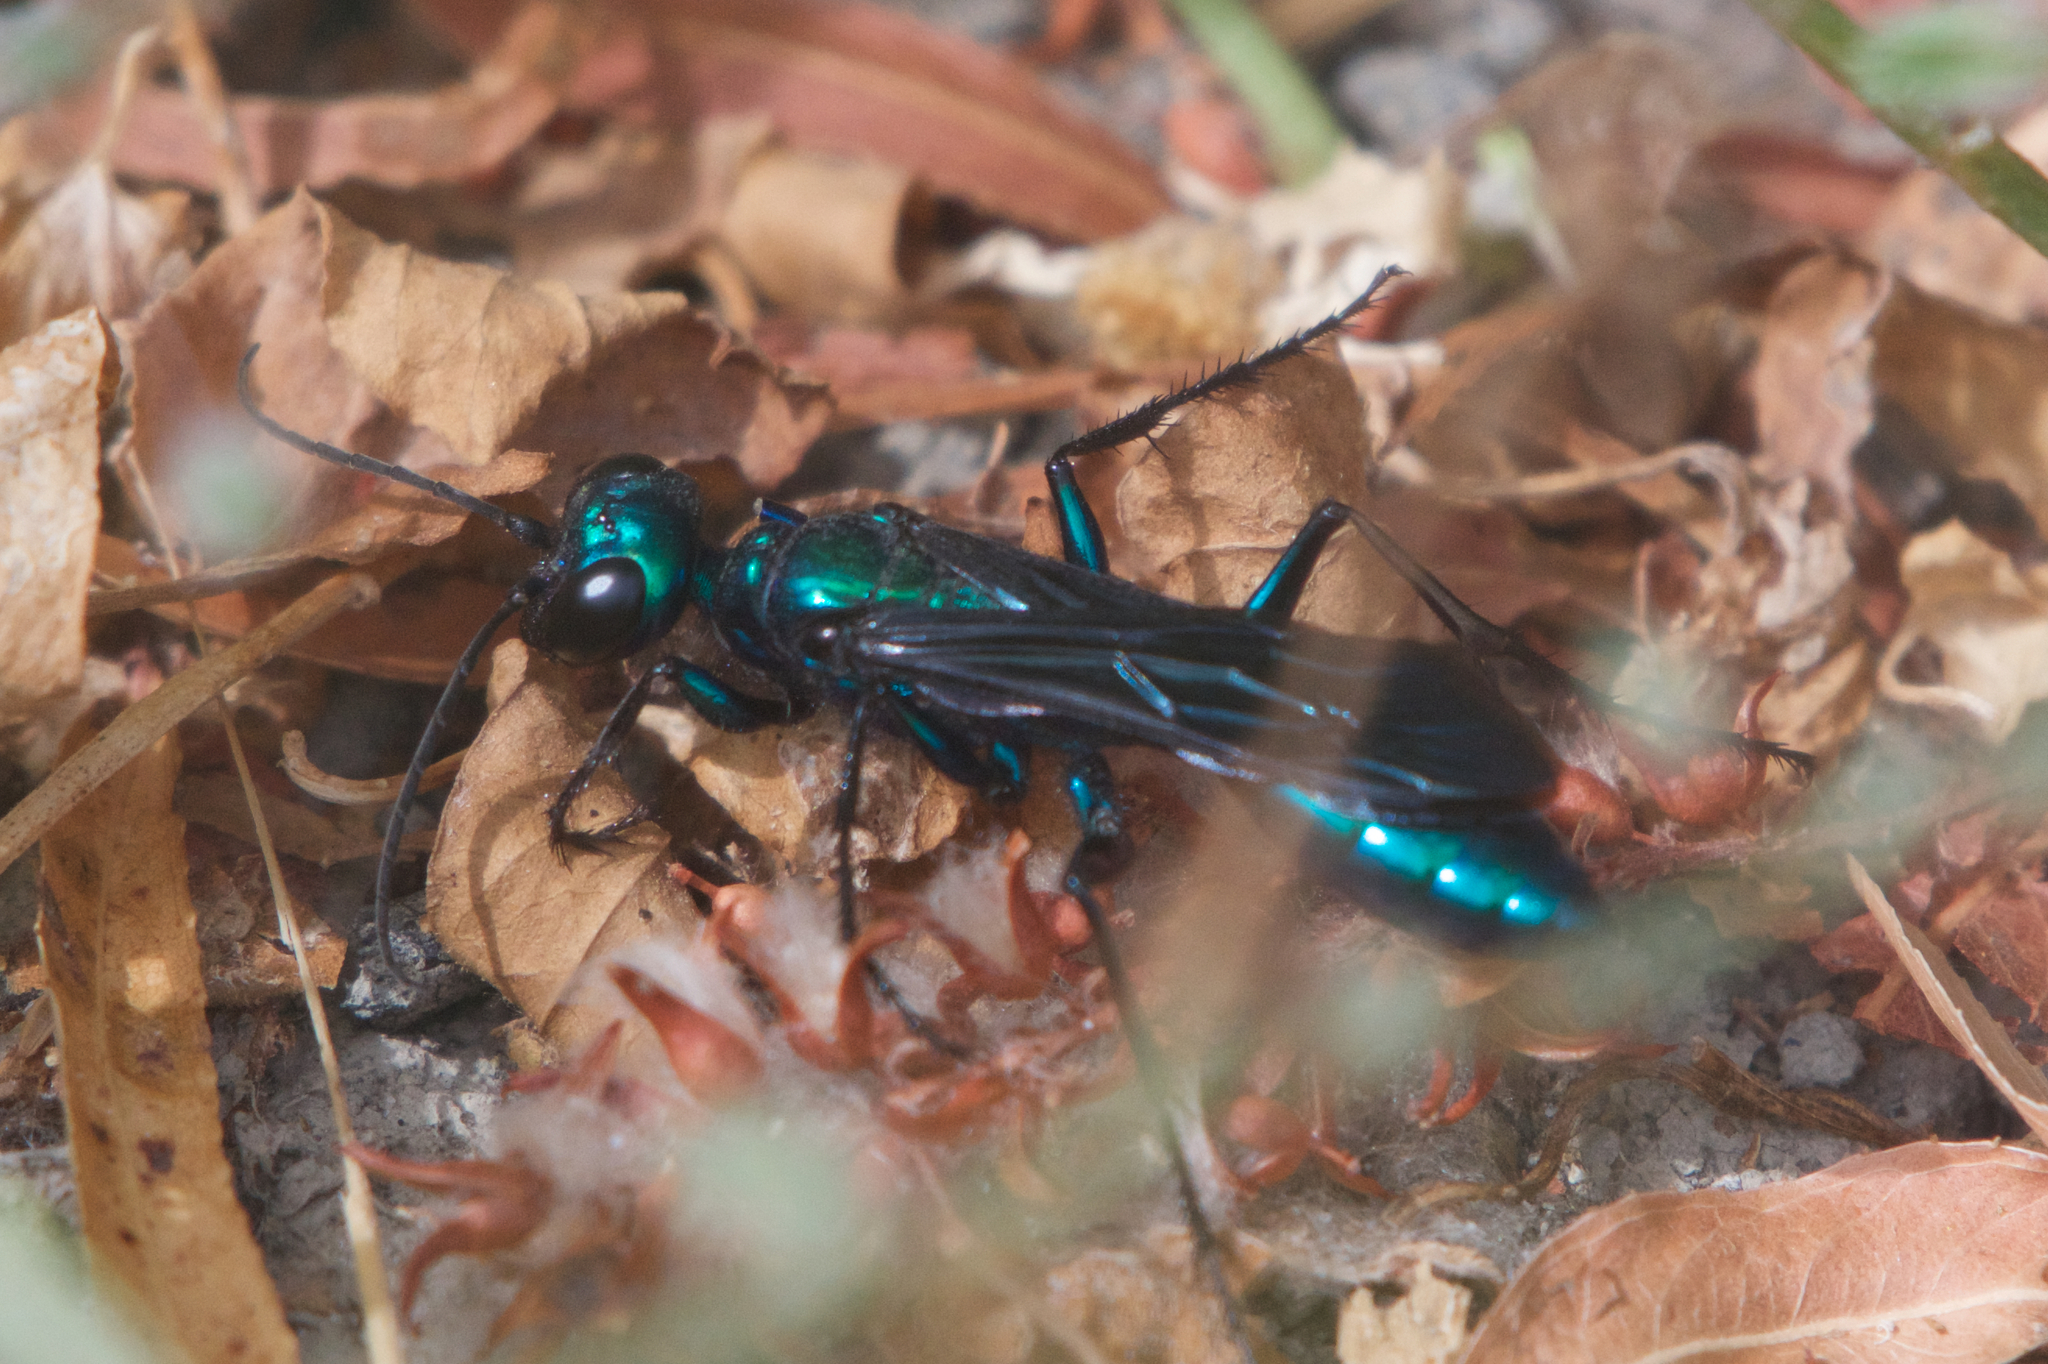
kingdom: Animalia
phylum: Arthropoda
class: Insecta
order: Hymenoptera
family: Sphecidae
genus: Chlorion
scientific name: Chlorion aerarium
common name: Steel-blue cricket hunter
